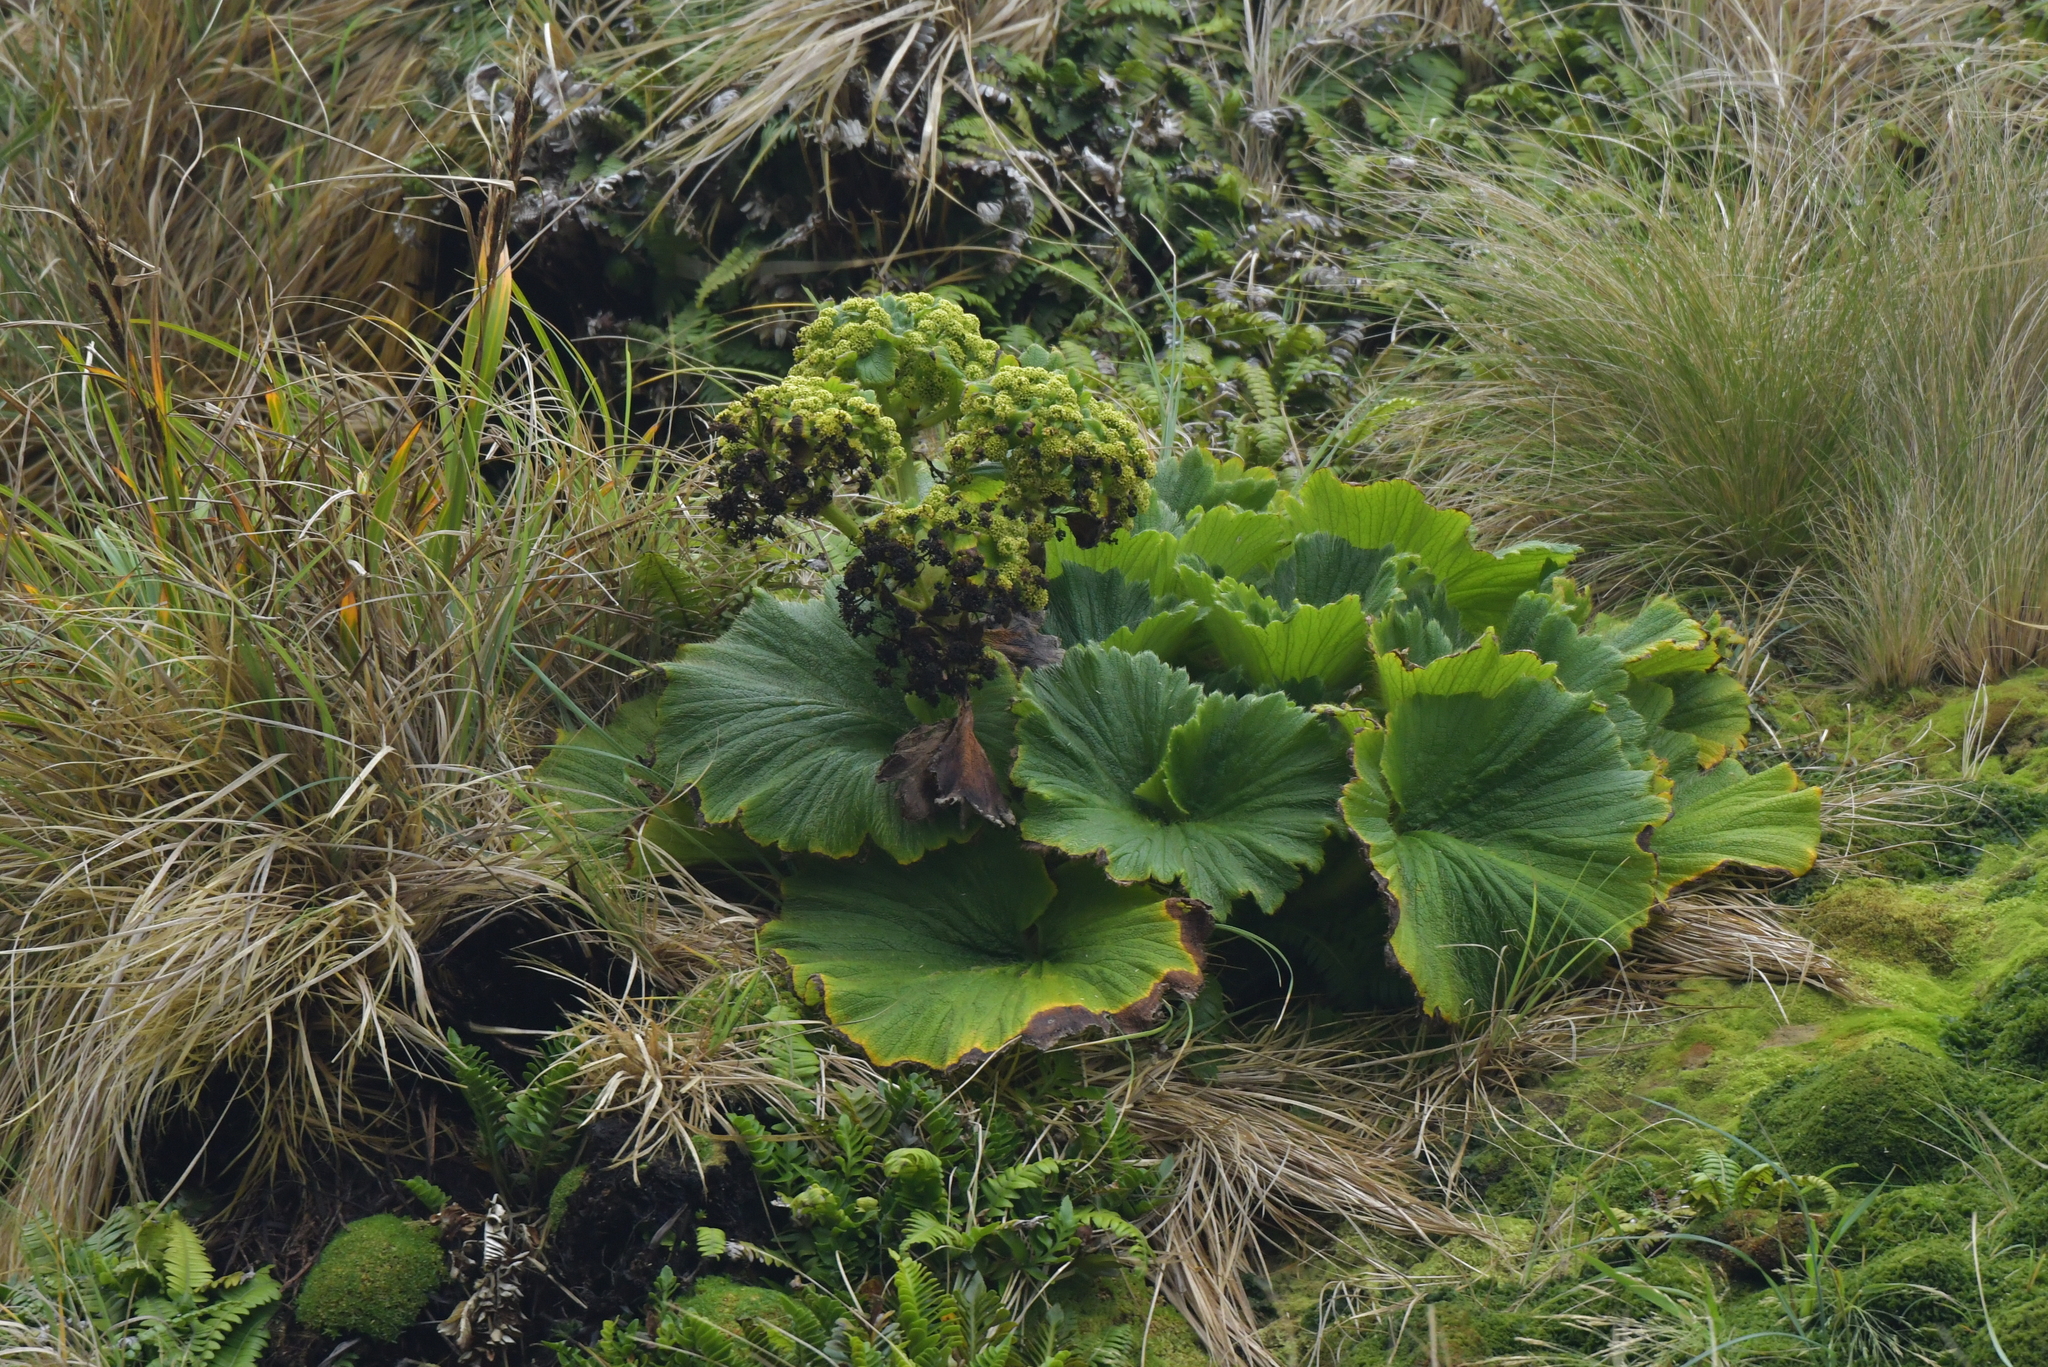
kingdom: Plantae
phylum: Tracheophyta
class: Magnoliopsida
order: Apiales
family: Apiaceae
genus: Azorella
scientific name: Azorella polaris
